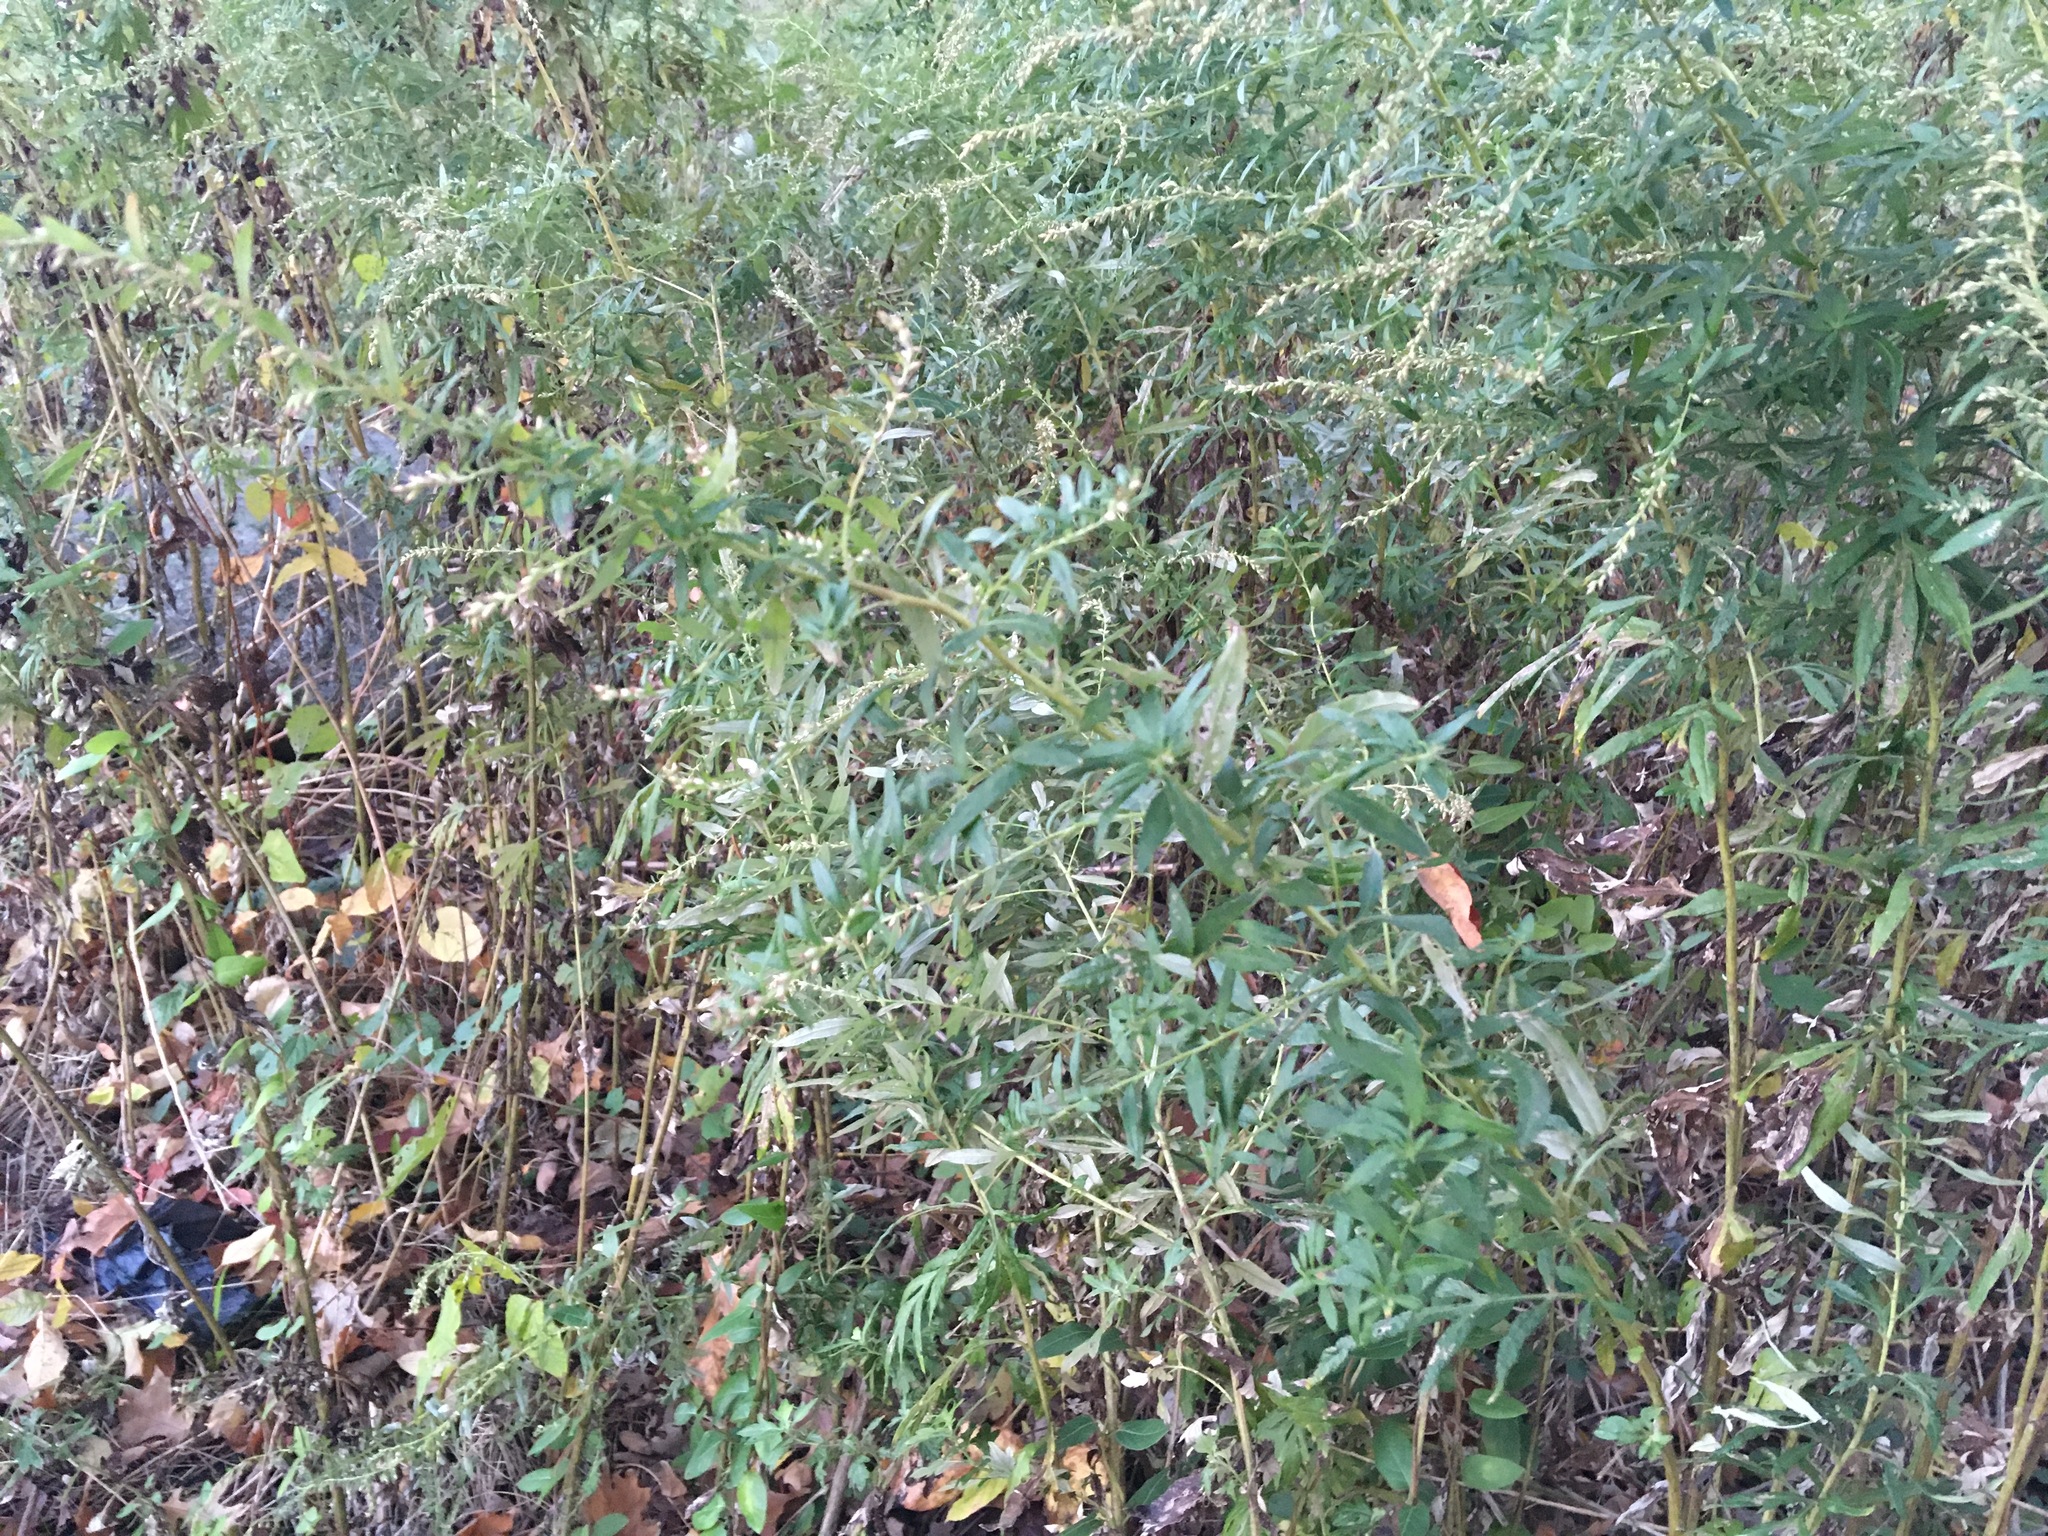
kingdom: Plantae
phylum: Tracheophyta
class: Magnoliopsida
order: Asterales
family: Asteraceae
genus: Artemisia
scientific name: Artemisia vulgaris
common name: Mugwort
